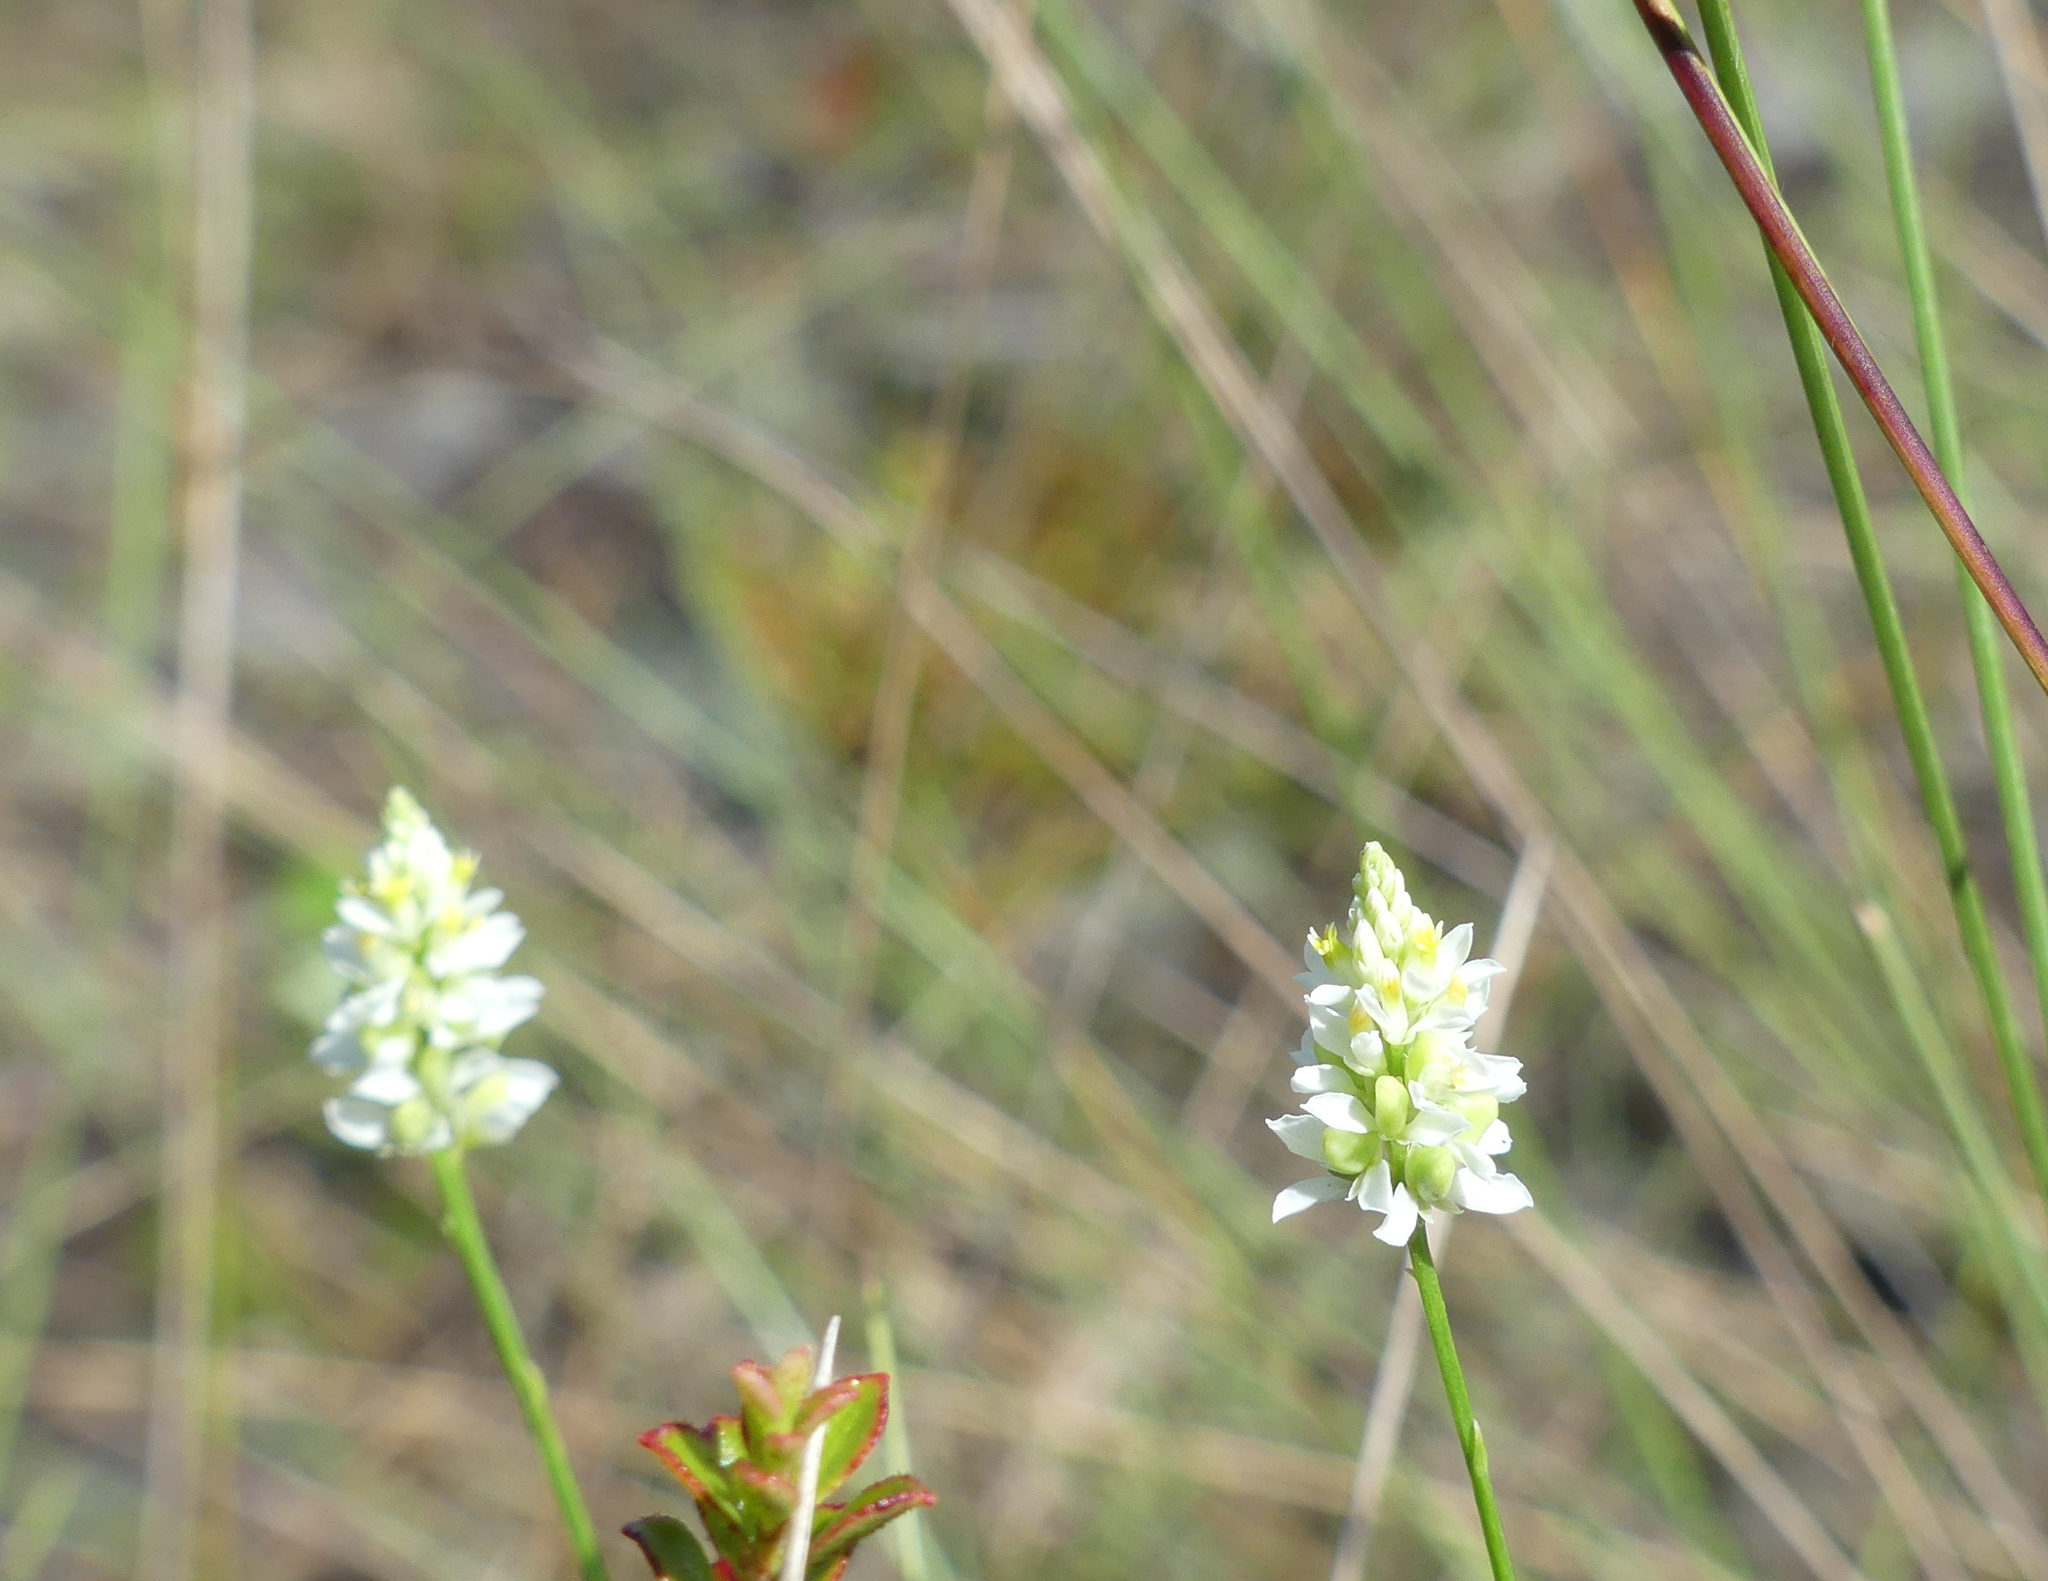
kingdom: Plantae
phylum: Tracheophyta
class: Magnoliopsida
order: Fabales
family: Polygalaceae
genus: Polygala
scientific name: Polygala setacea
